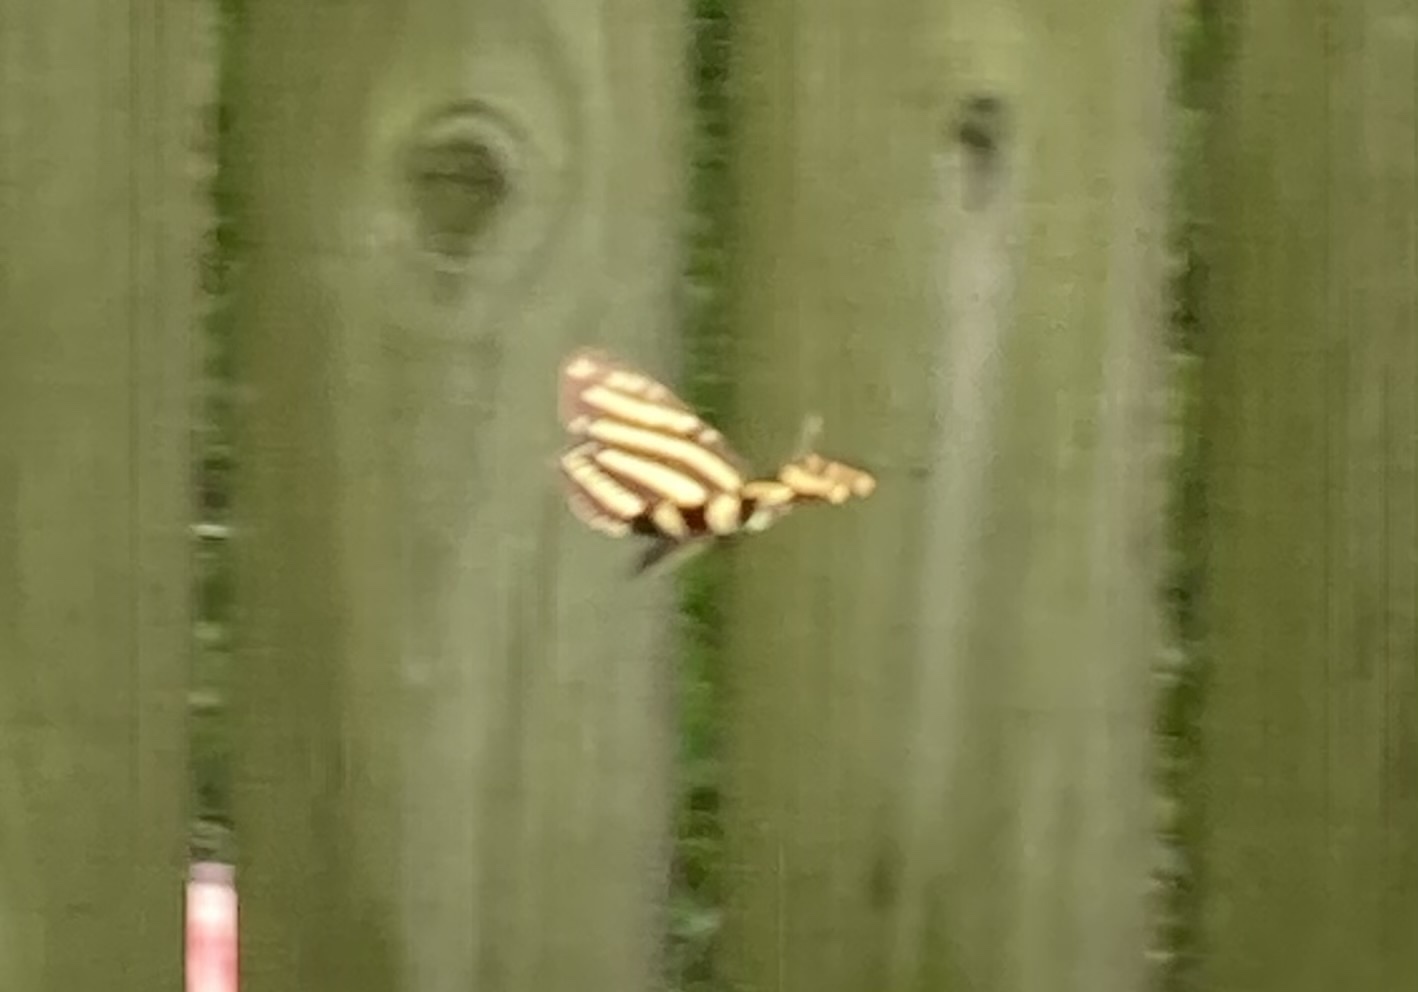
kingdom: Animalia
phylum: Arthropoda
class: Insecta
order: Lepidoptera
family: Nymphalidae
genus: Heliconius
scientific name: Heliconius charithonia
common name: Zebra long wing
